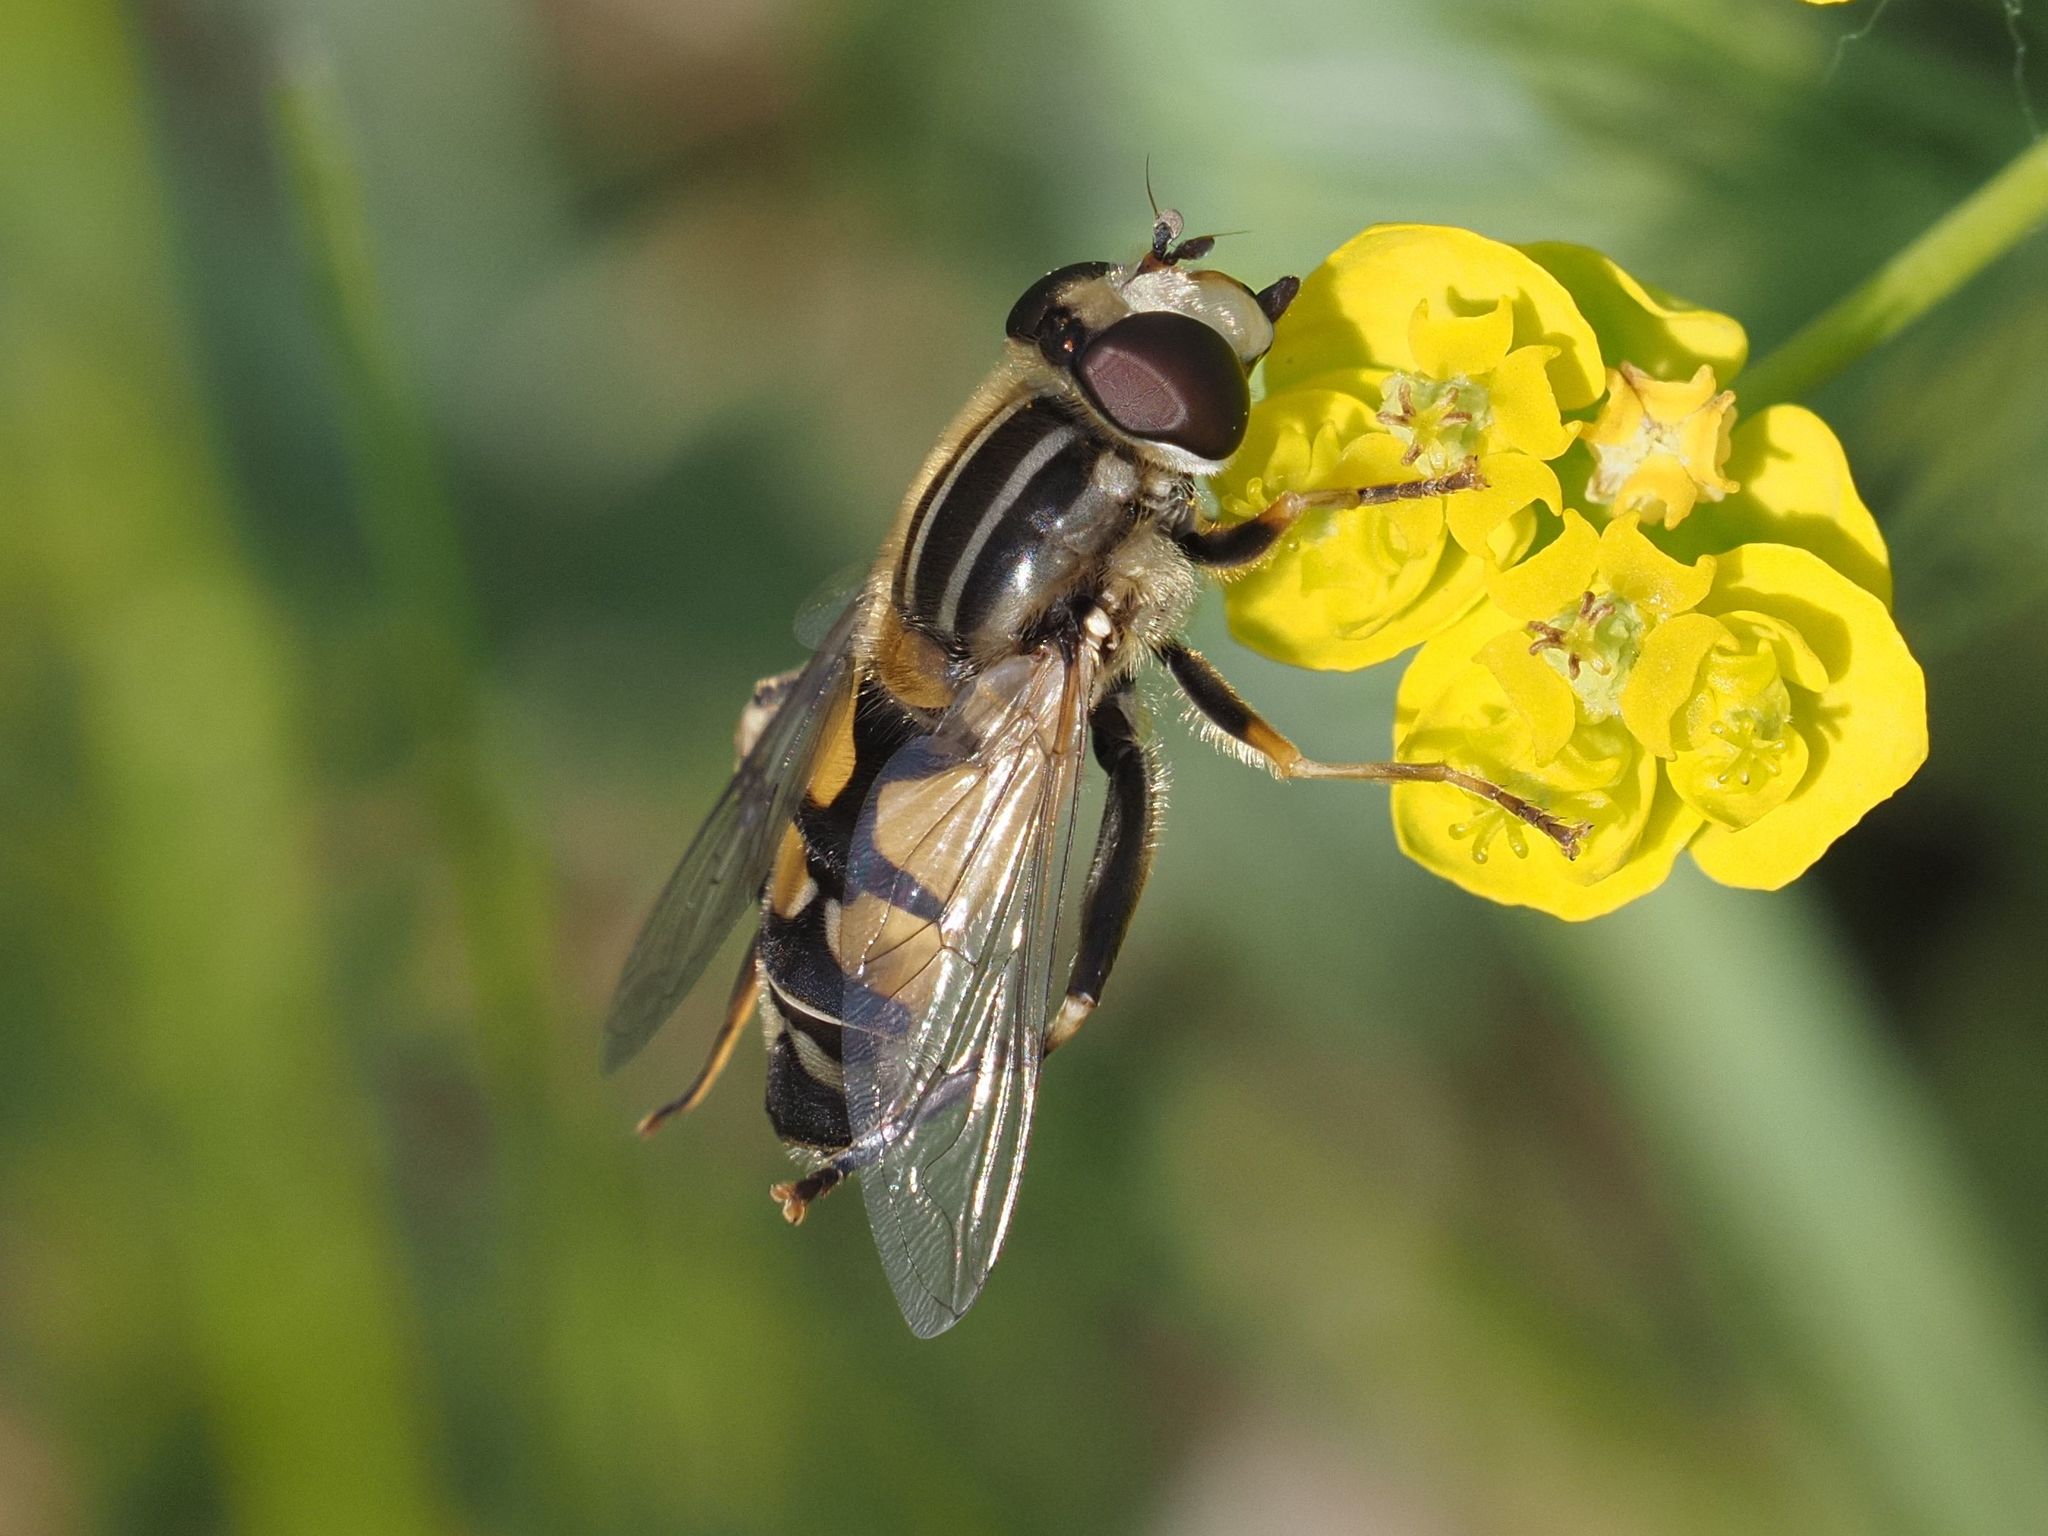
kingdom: Animalia
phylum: Arthropoda
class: Insecta
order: Diptera
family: Syrphidae
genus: Helophilus
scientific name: Helophilus trivittatus
